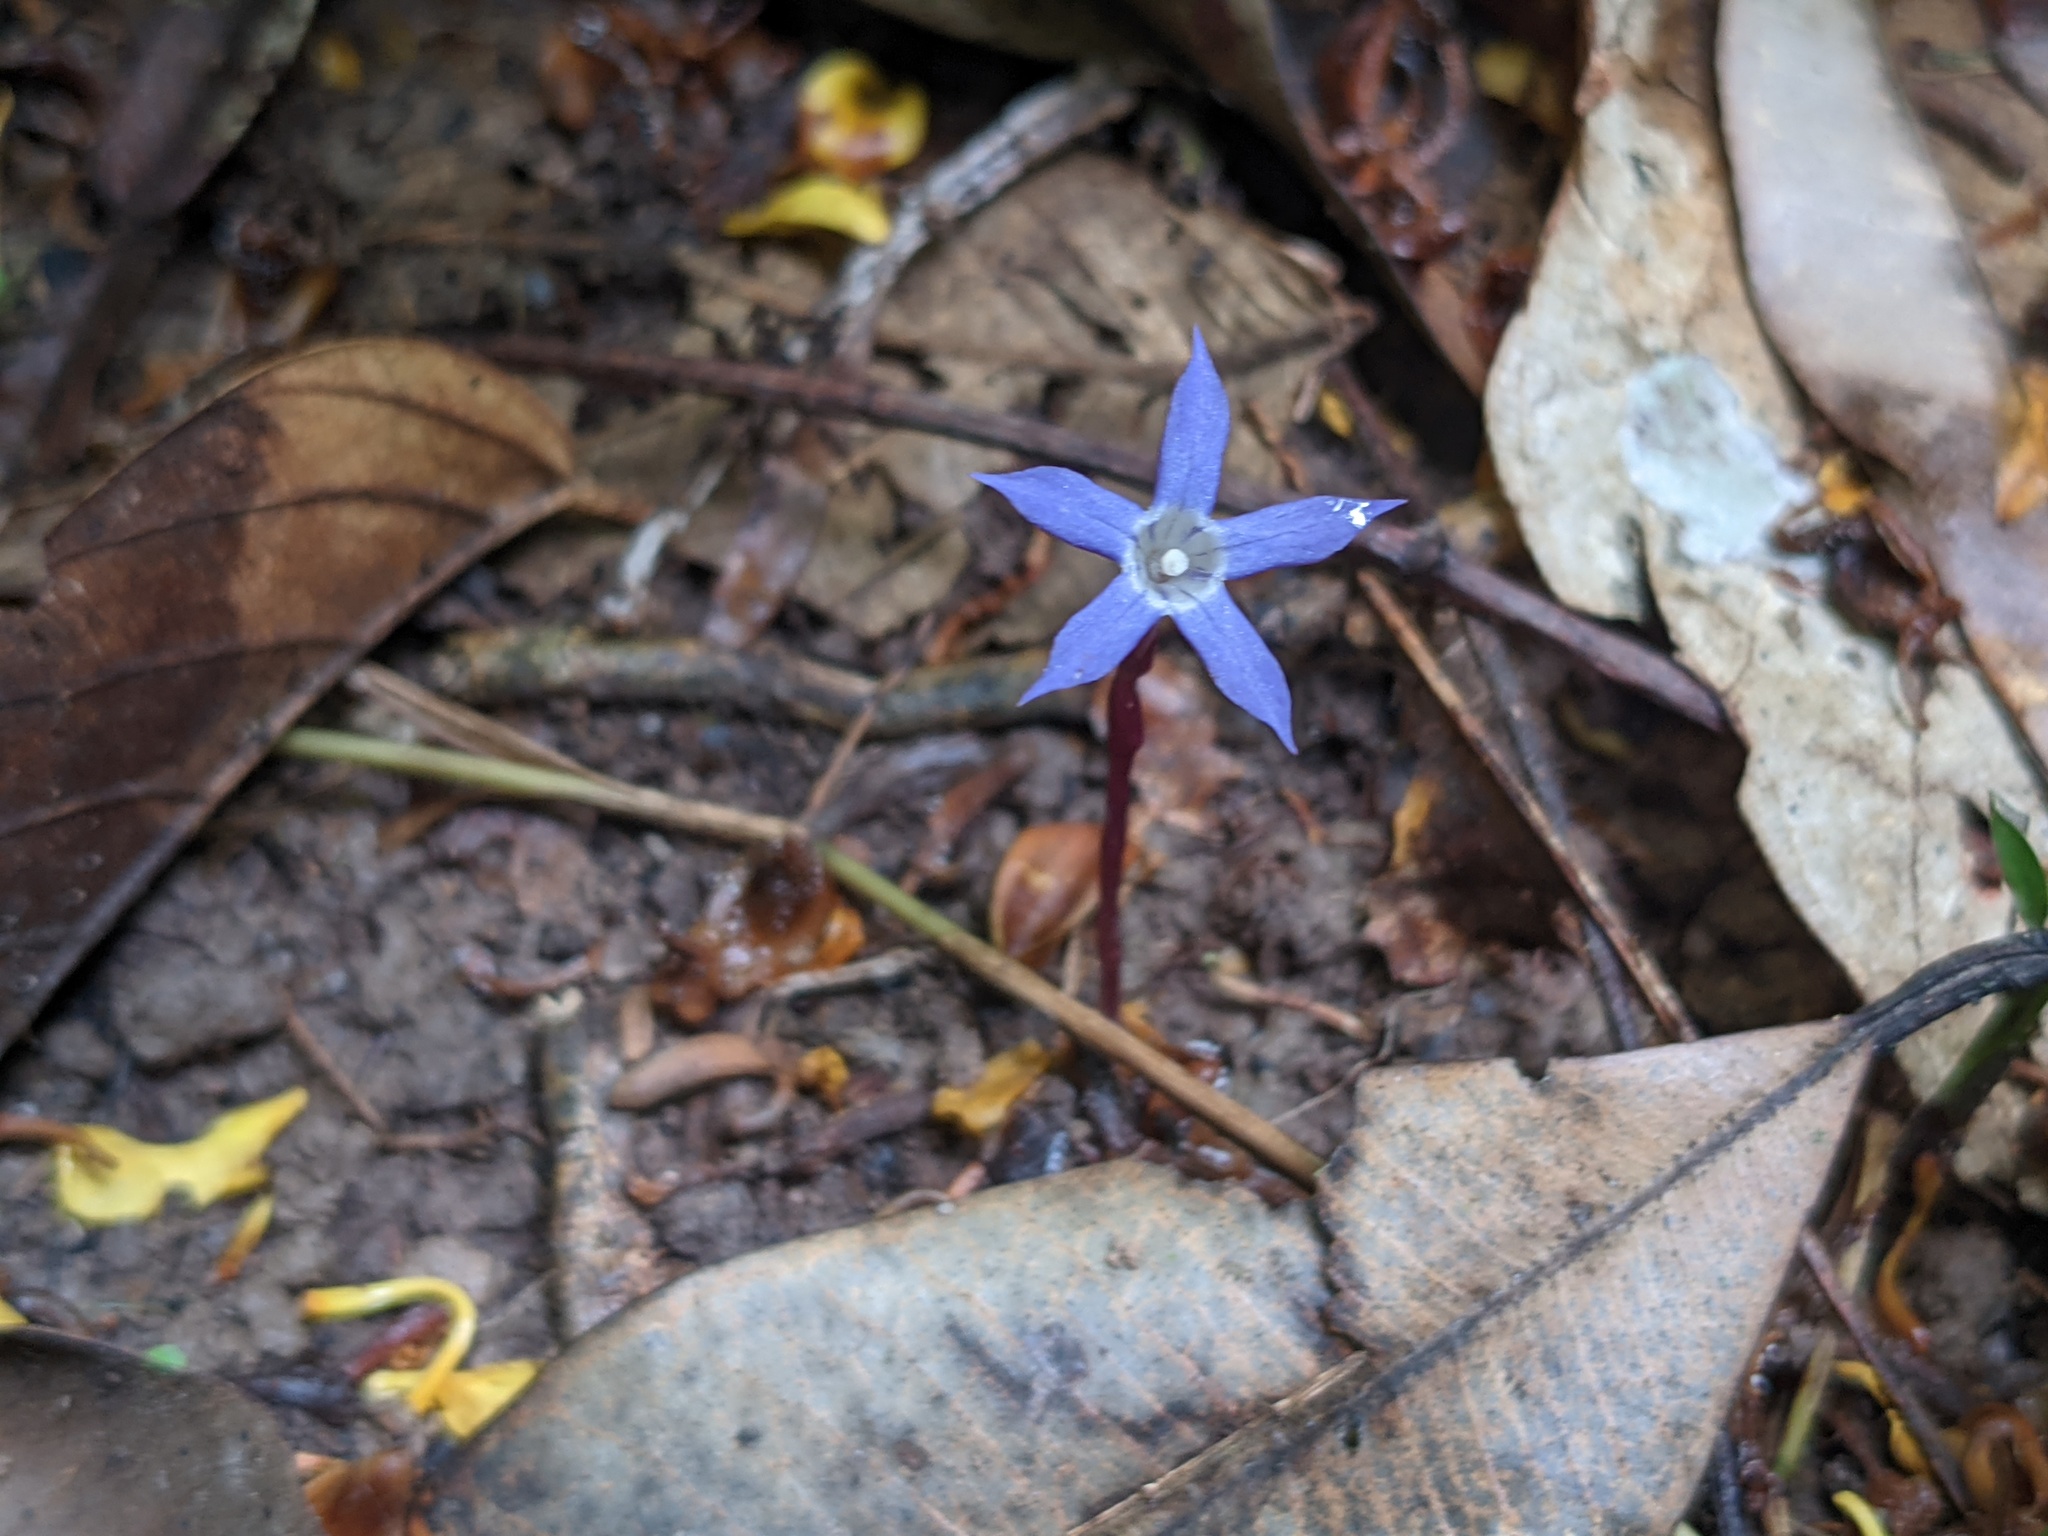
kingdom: Plantae
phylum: Tracheophyta
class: Magnoliopsida
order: Gentianales
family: Gentianaceae
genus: Voyria
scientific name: Voyria pittieri
